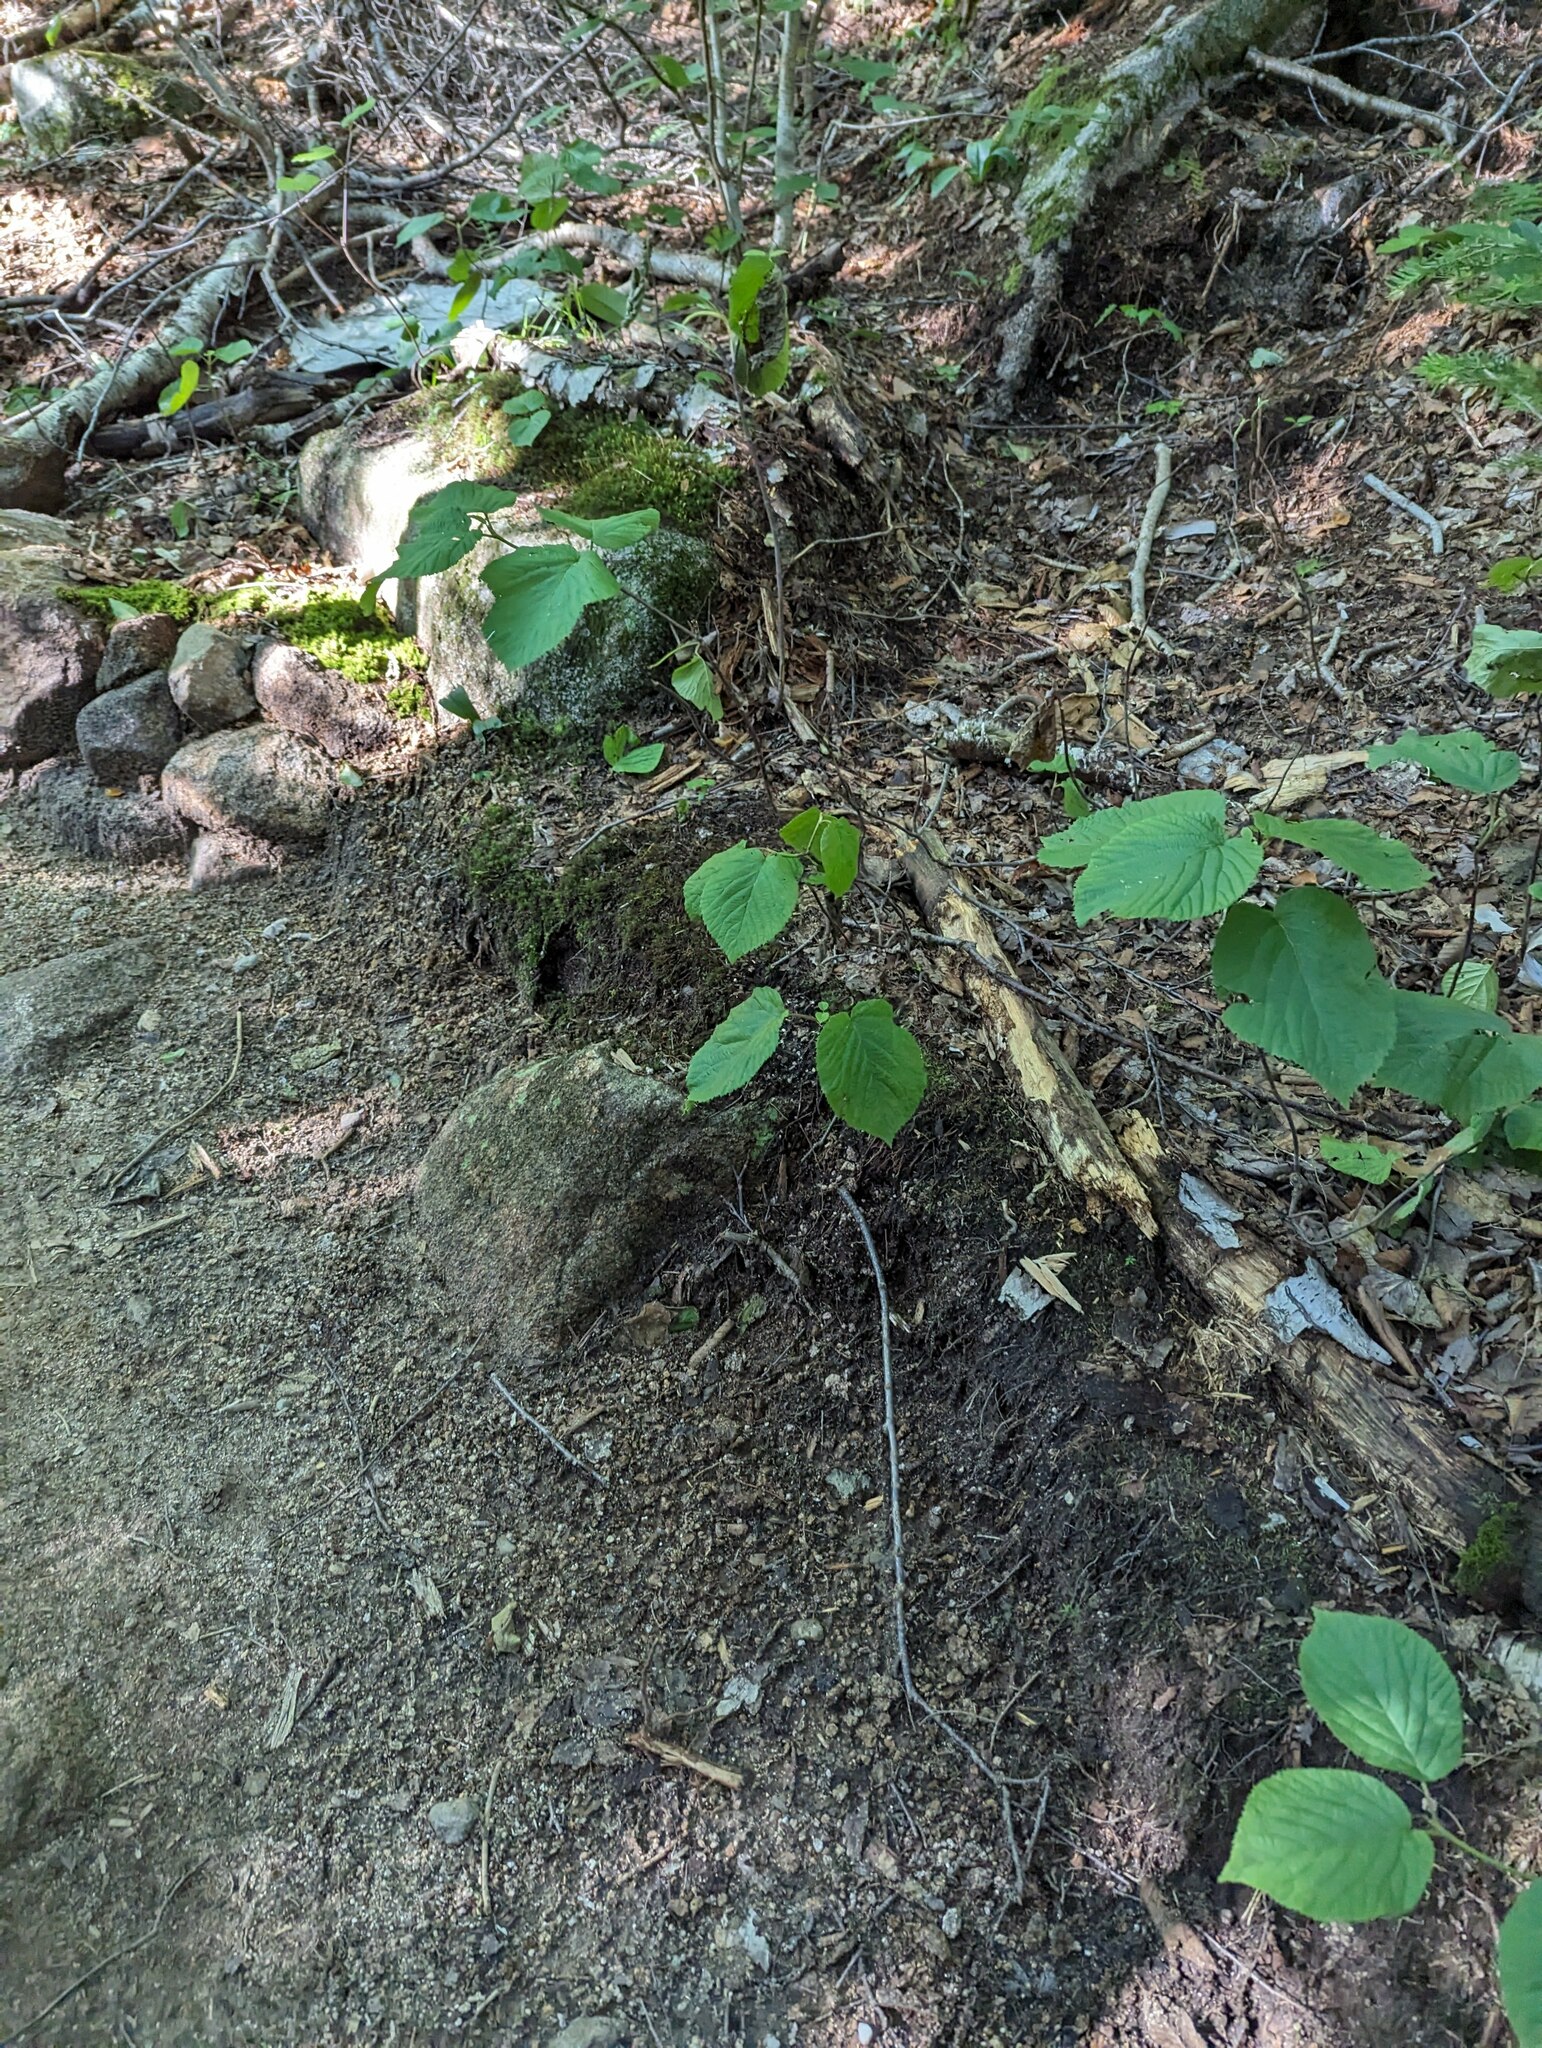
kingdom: Plantae
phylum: Tracheophyta
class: Magnoliopsida
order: Dipsacales
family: Viburnaceae
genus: Viburnum
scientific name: Viburnum lantanoides
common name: Hobblebush
